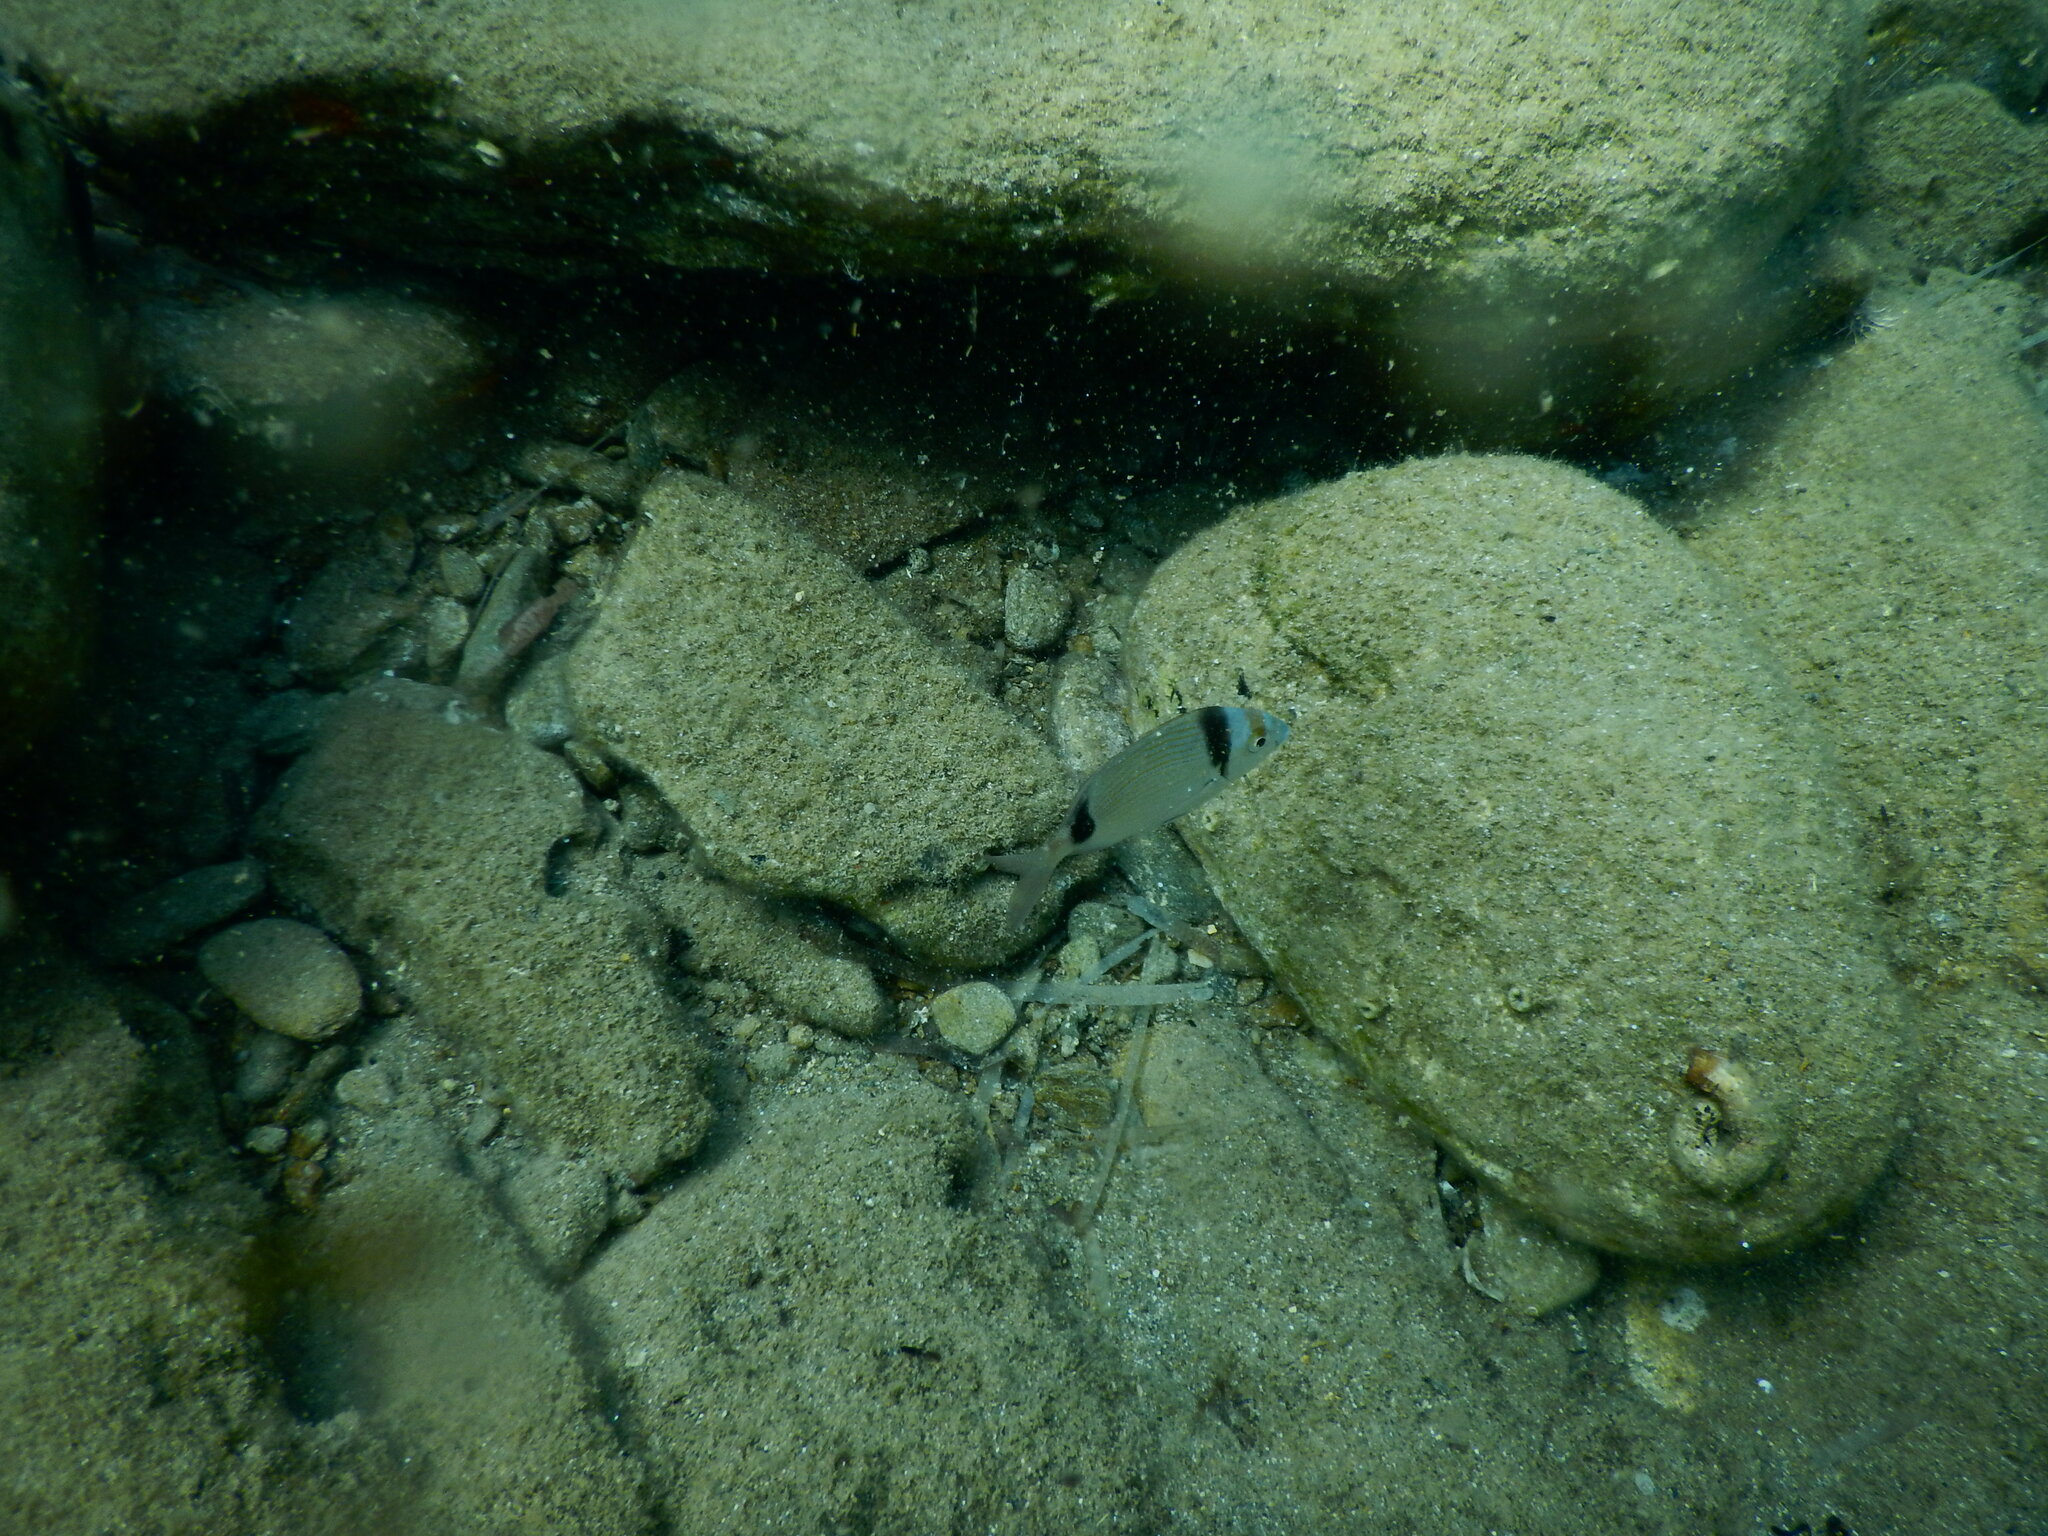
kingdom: Animalia
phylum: Chordata
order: Perciformes
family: Sparidae
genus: Diplodus
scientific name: Diplodus vulgaris
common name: Common two-banded seabream
